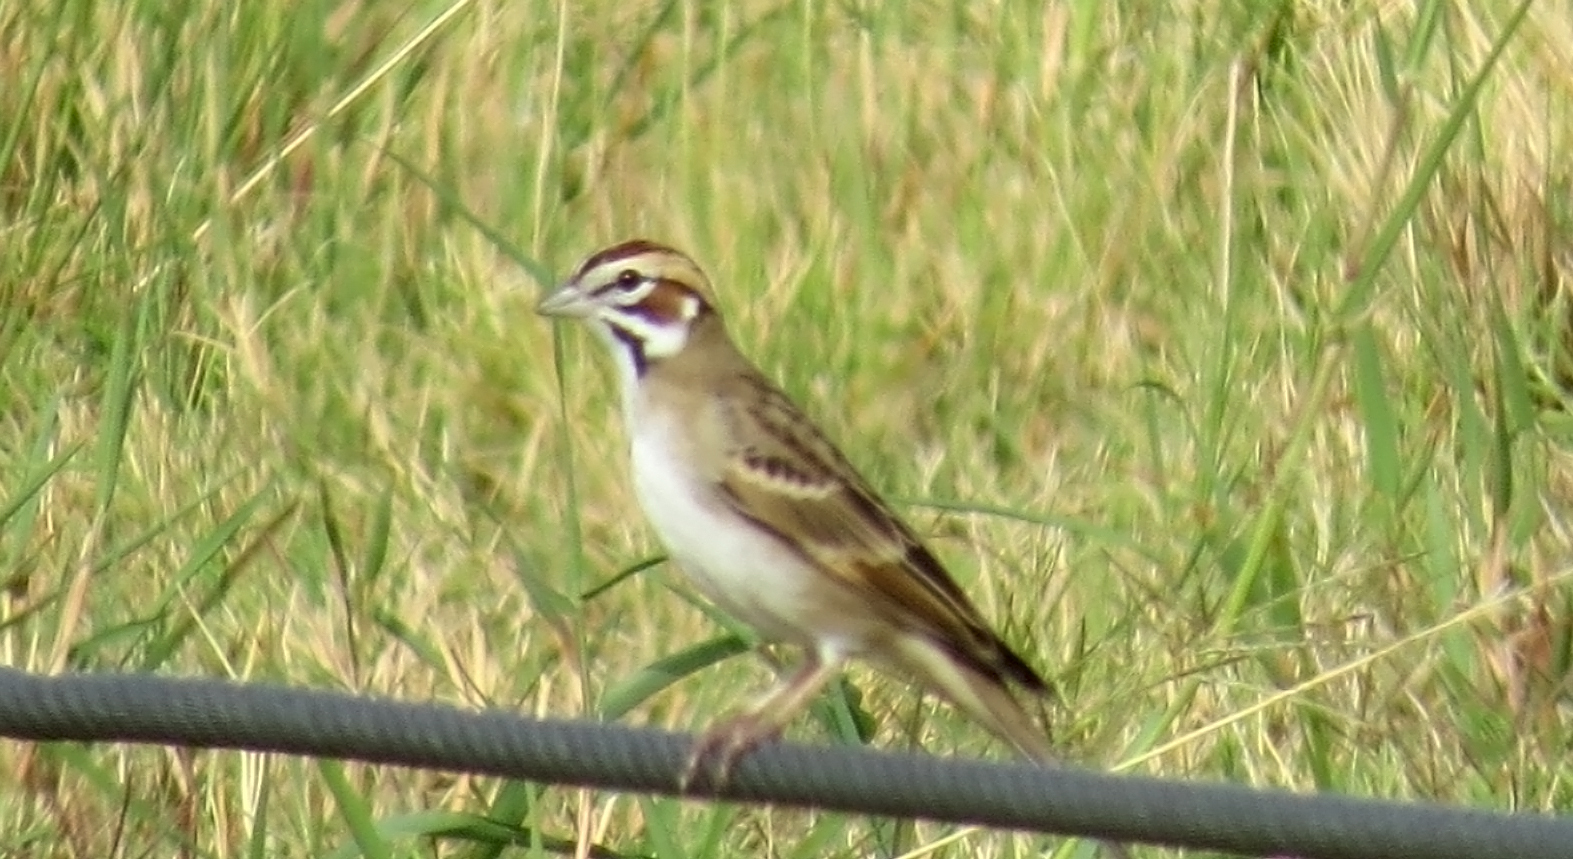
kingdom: Animalia
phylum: Chordata
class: Aves
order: Passeriformes
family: Passerellidae
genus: Chondestes
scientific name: Chondestes grammacus
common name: Lark sparrow
